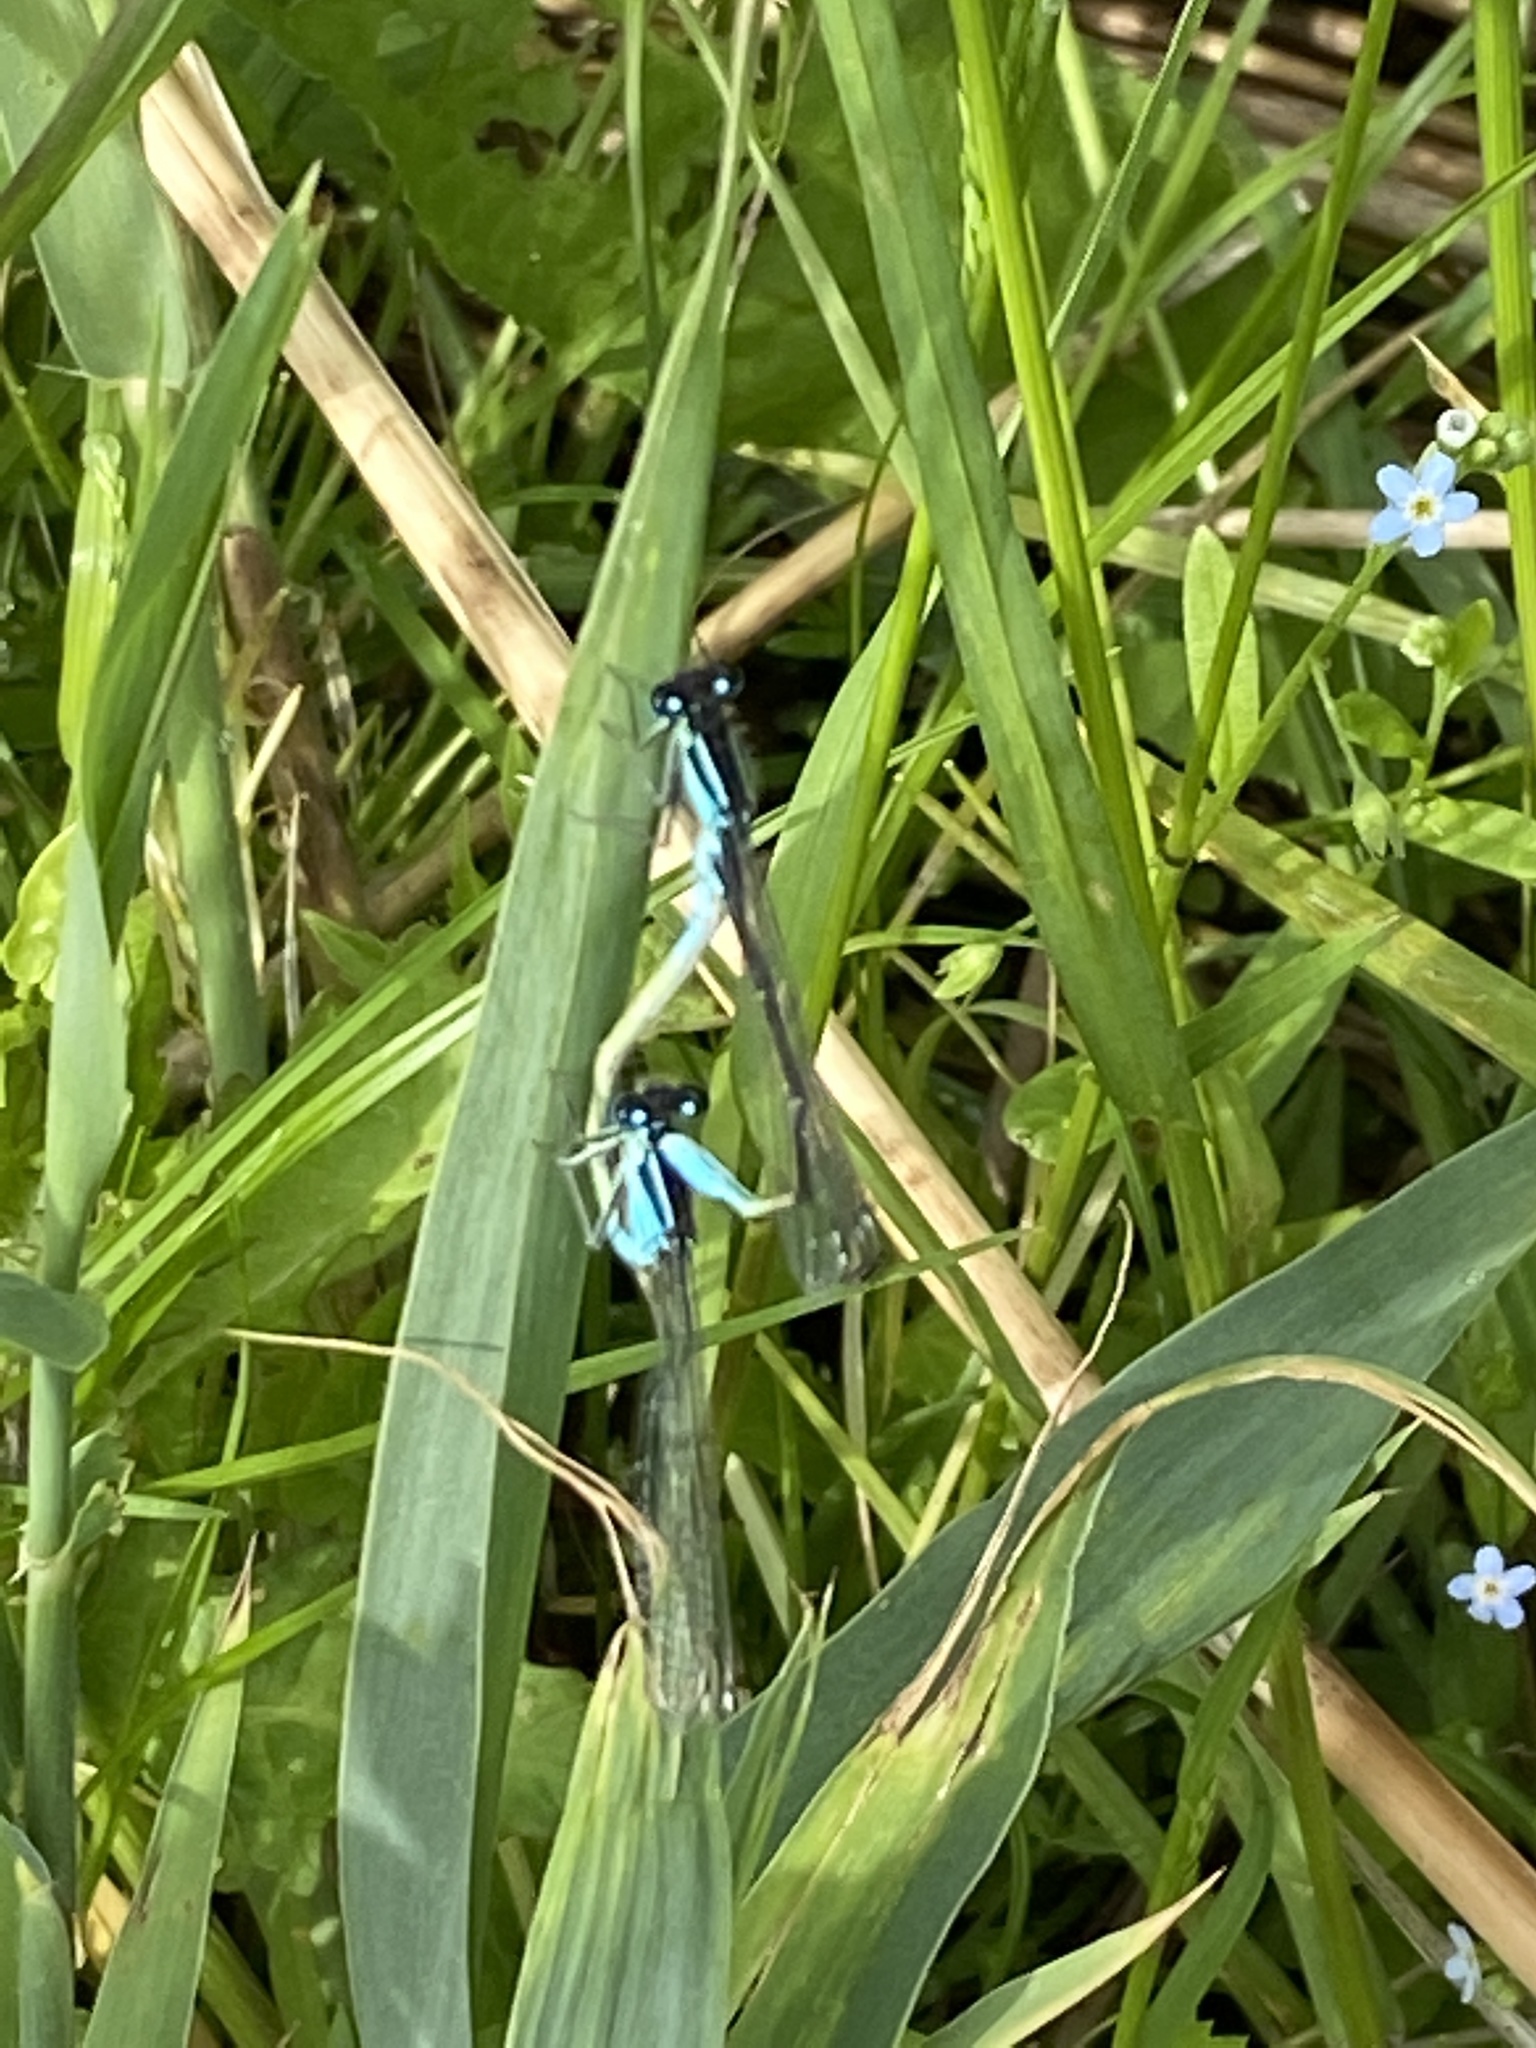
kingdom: Animalia
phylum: Arthropoda
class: Insecta
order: Odonata
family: Coenagrionidae
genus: Ischnura
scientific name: Ischnura elegans
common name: Blue-tailed damselfly
